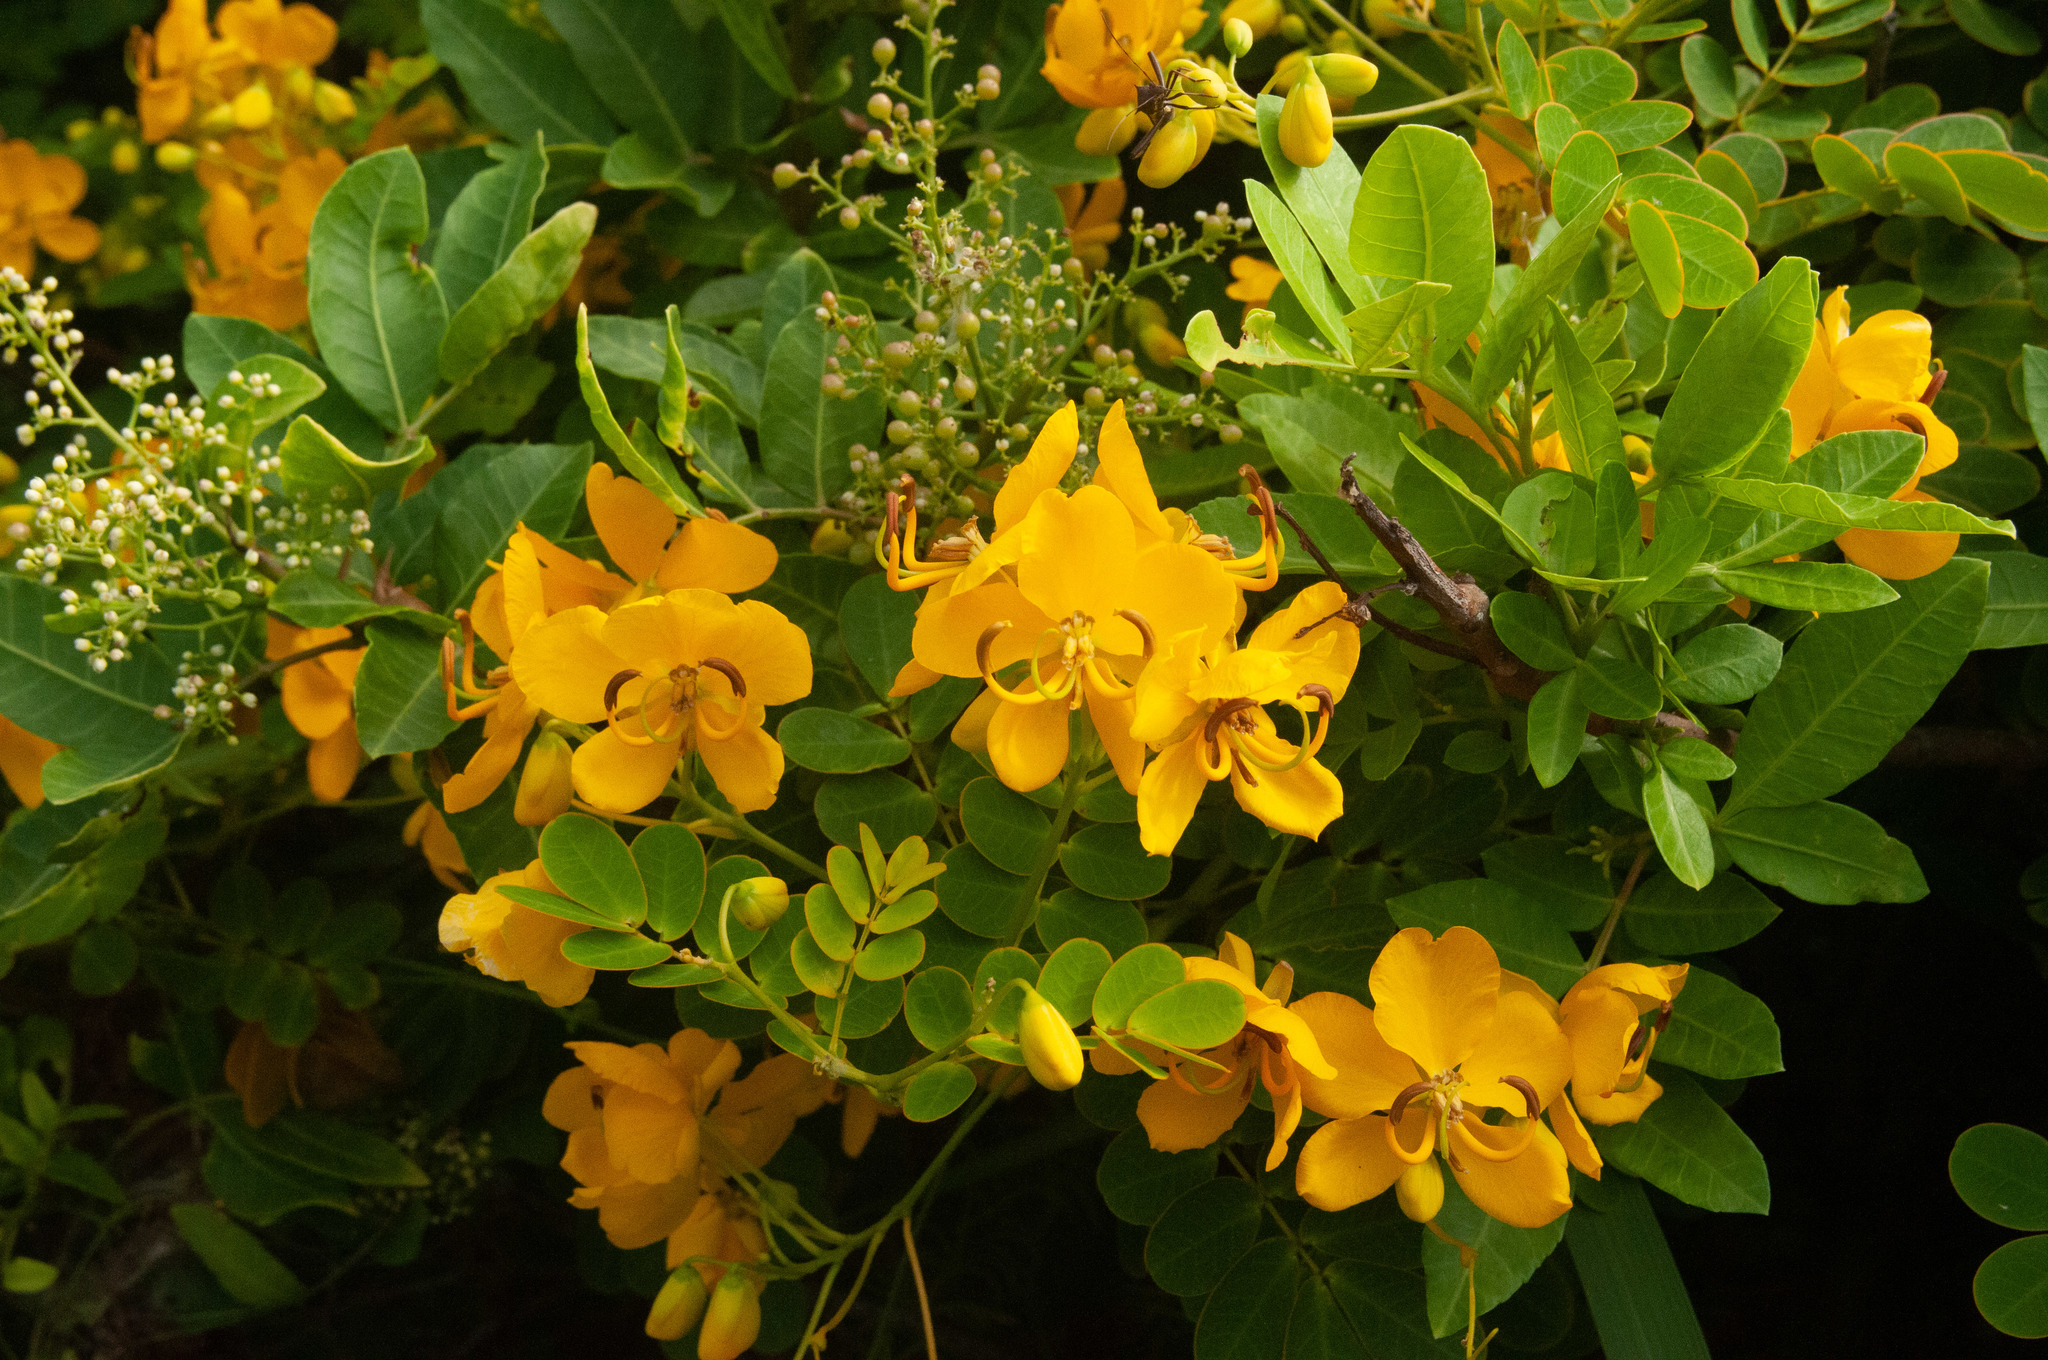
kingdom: Plantae
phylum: Tracheophyta
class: Magnoliopsida
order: Fabales
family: Fabaceae
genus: Senna
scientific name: Senna pendula
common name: Easter cassia
